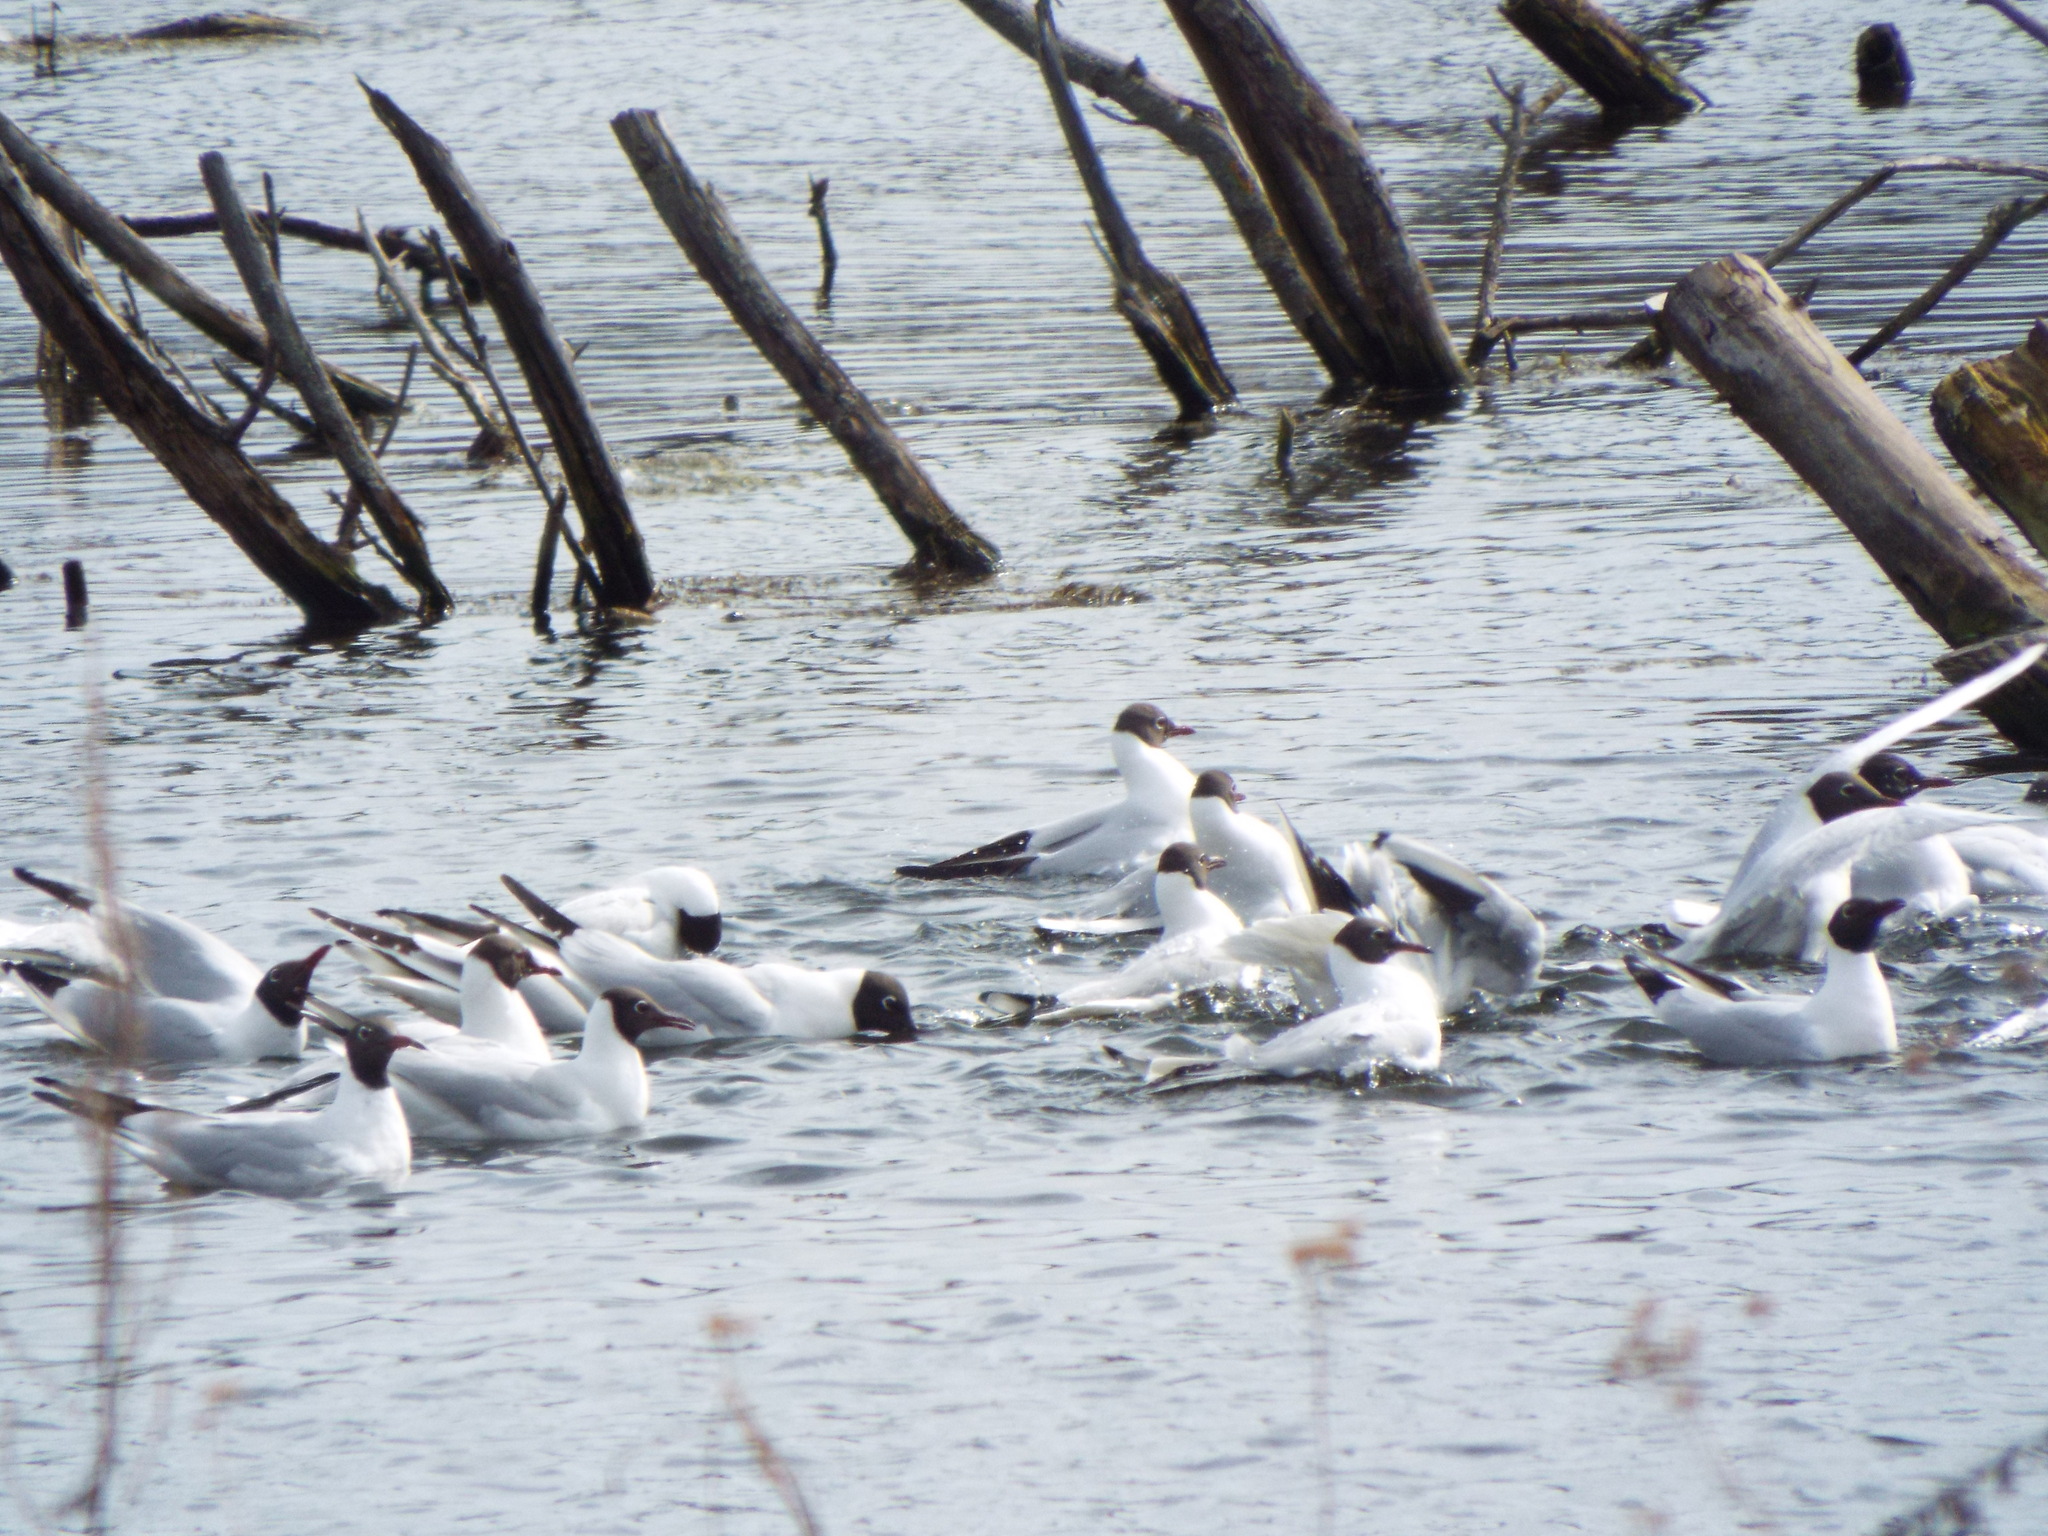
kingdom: Animalia
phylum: Chordata
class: Aves
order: Charadriiformes
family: Laridae
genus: Chroicocephalus
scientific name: Chroicocephalus ridibundus
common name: Black-headed gull
